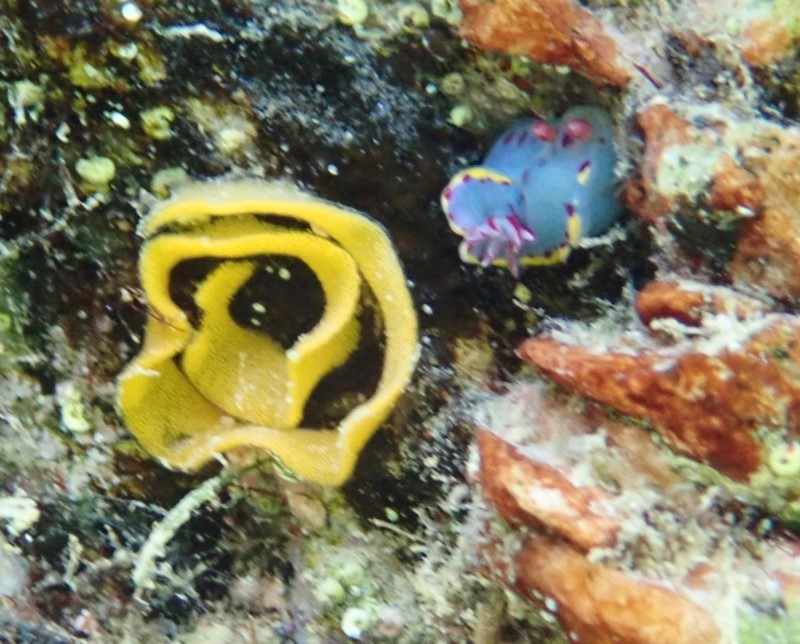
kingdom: Animalia
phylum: Mollusca
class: Gastropoda
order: Nudibranchia
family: Chromodorididae
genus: Hypselodoris
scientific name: Hypselodoris bennetti
